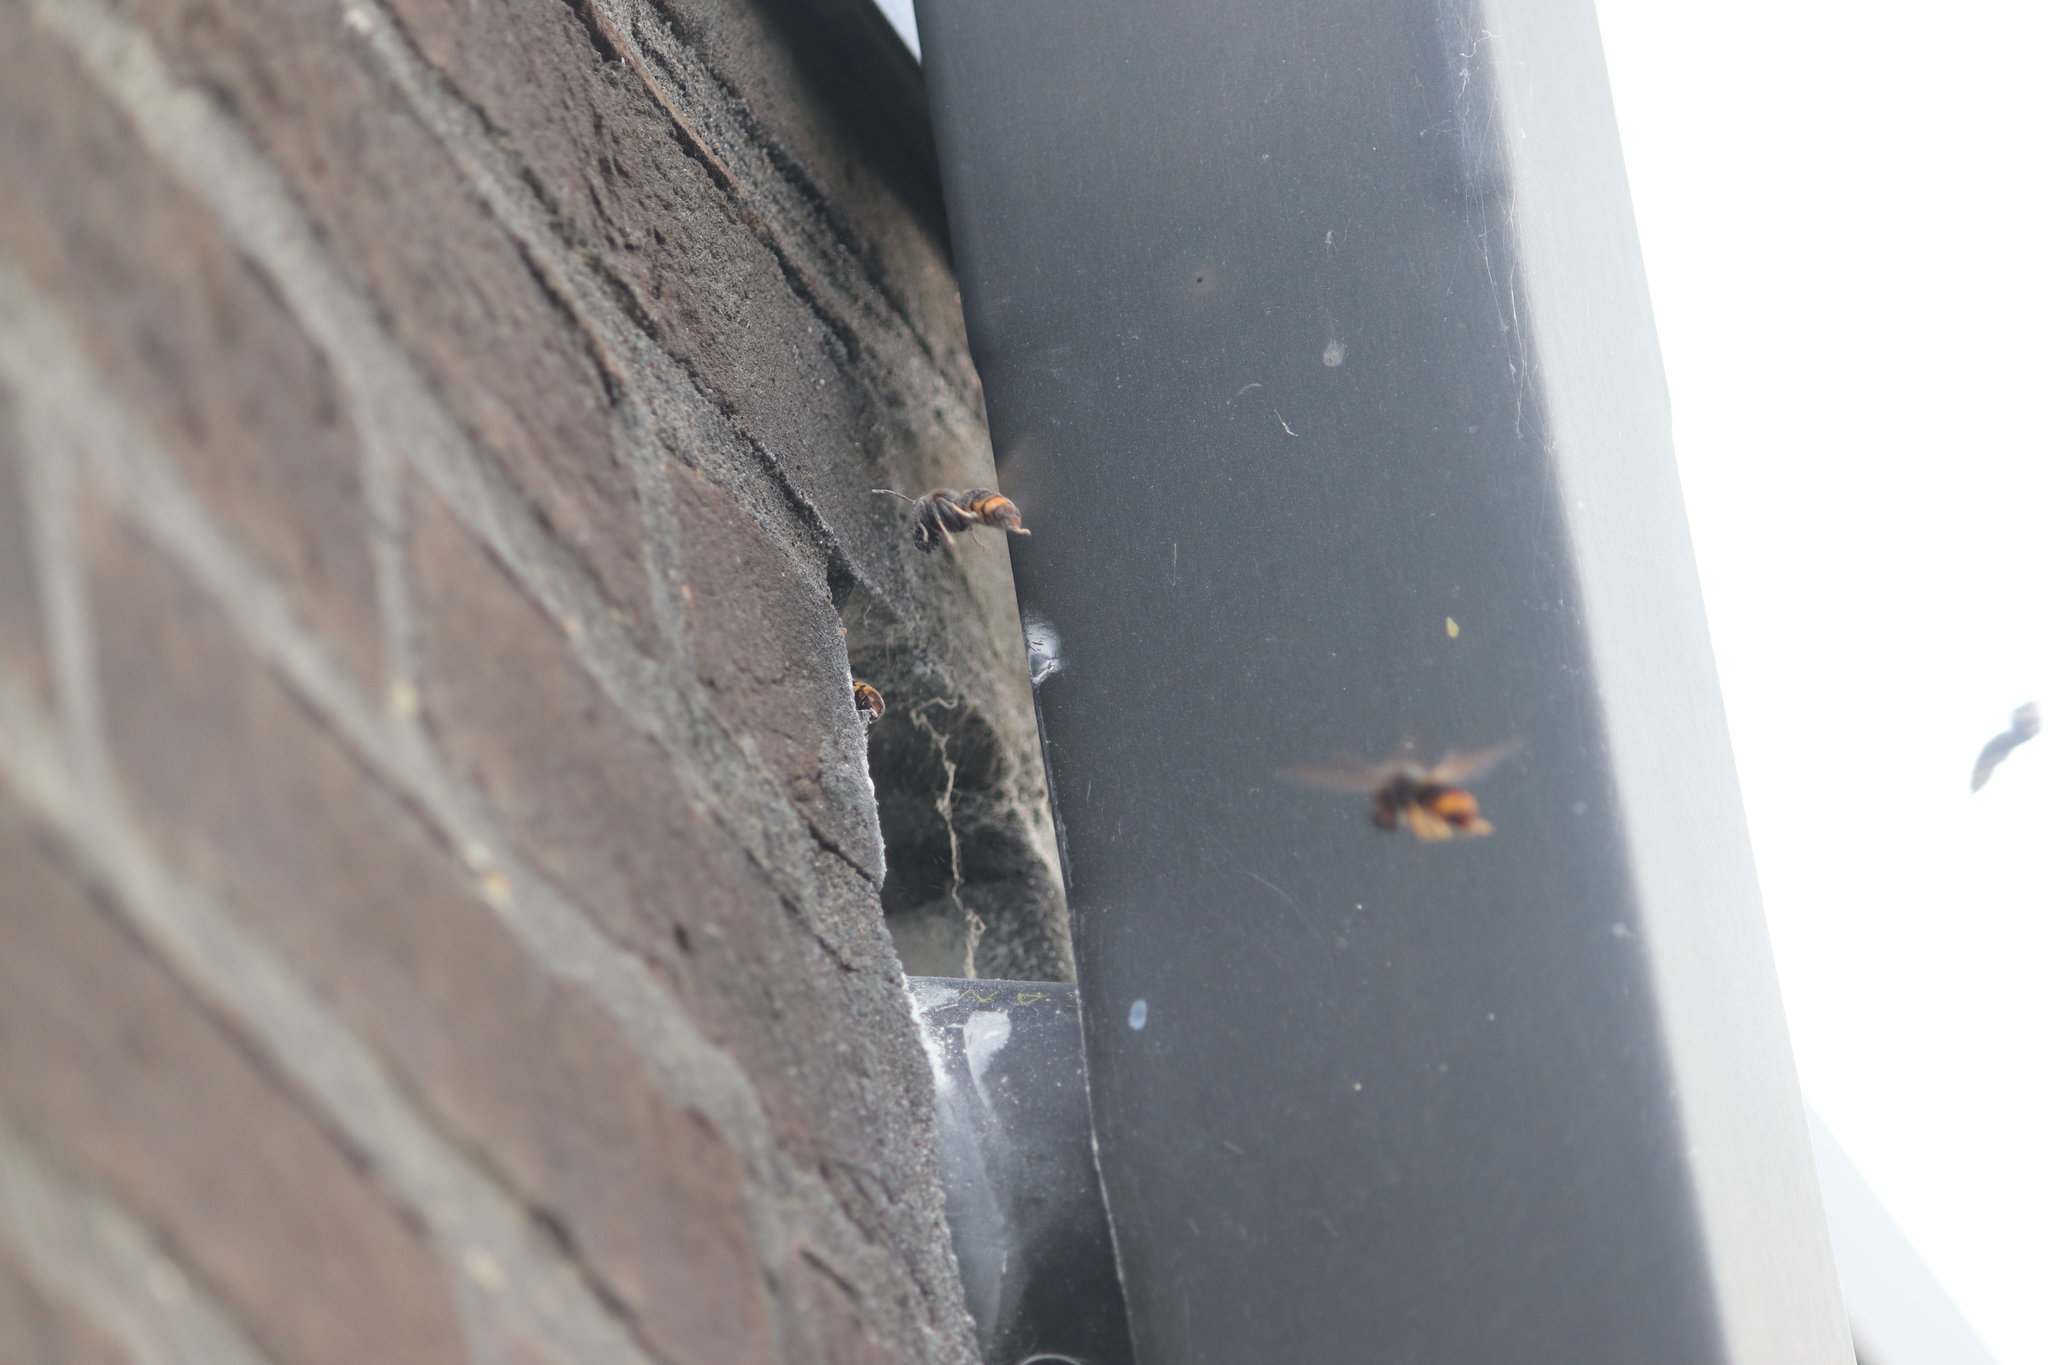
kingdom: Animalia
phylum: Arthropoda
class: Insecta
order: Hymenoptera
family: Vespidae
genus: Vespa
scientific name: Vespa velutina
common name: Asian hornet
